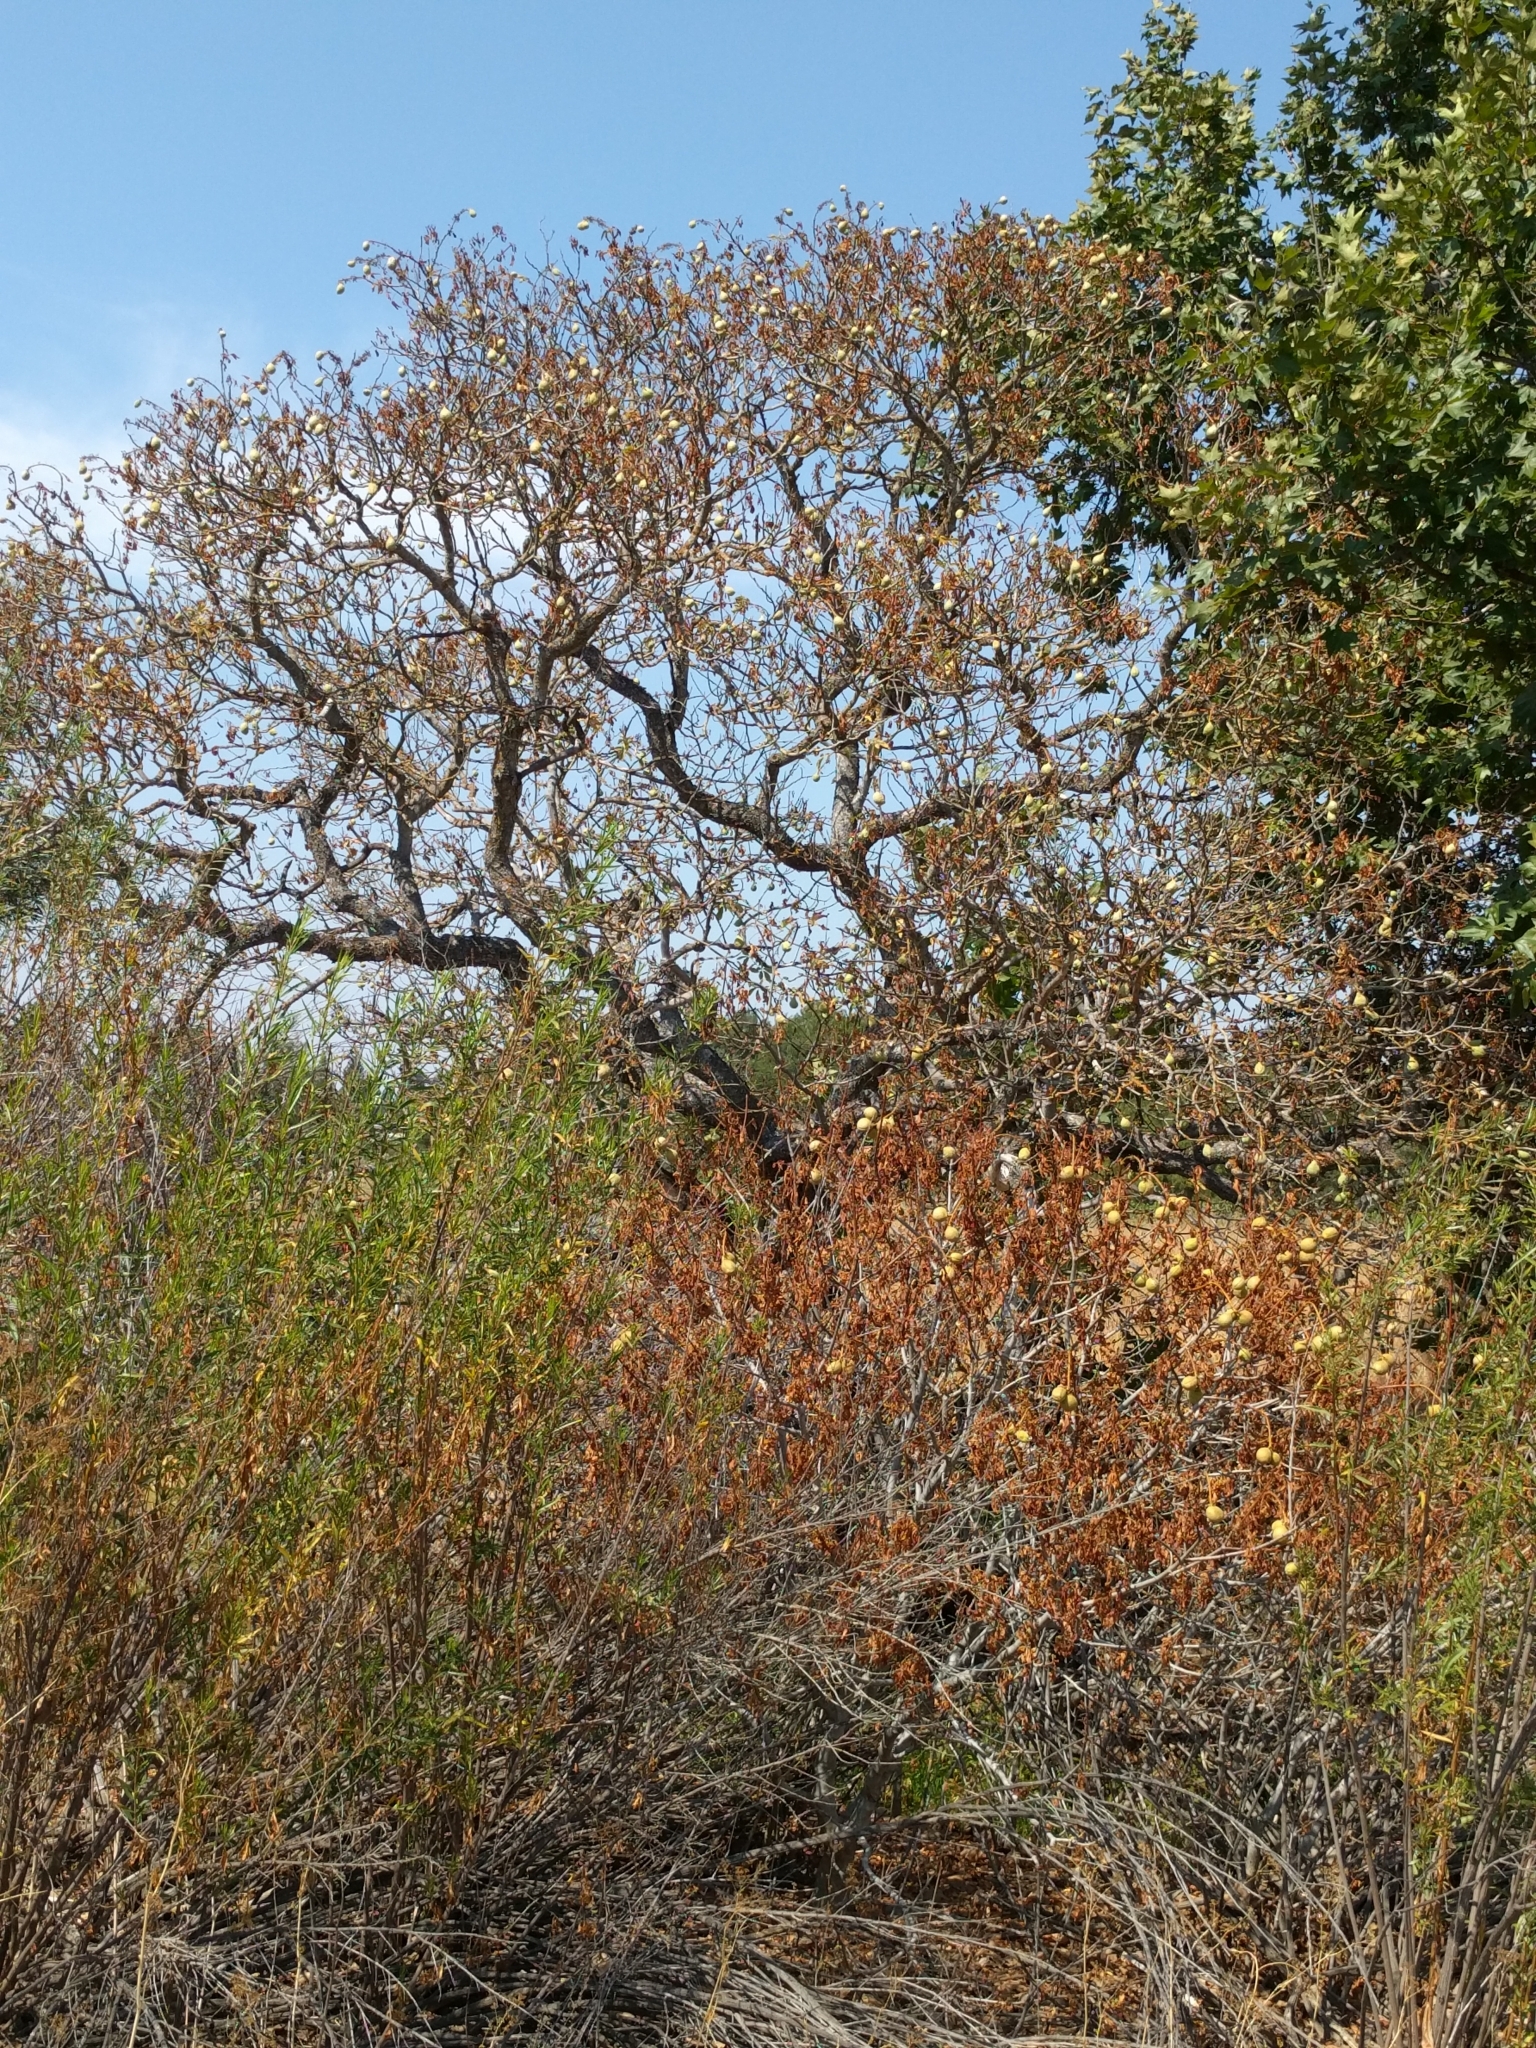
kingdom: Plantae
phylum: Tracheophyta
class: Magnoliopsida
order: Sapindales
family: Sapindaceae
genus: Aesculus
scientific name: Aesculus californica
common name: California buckeye
